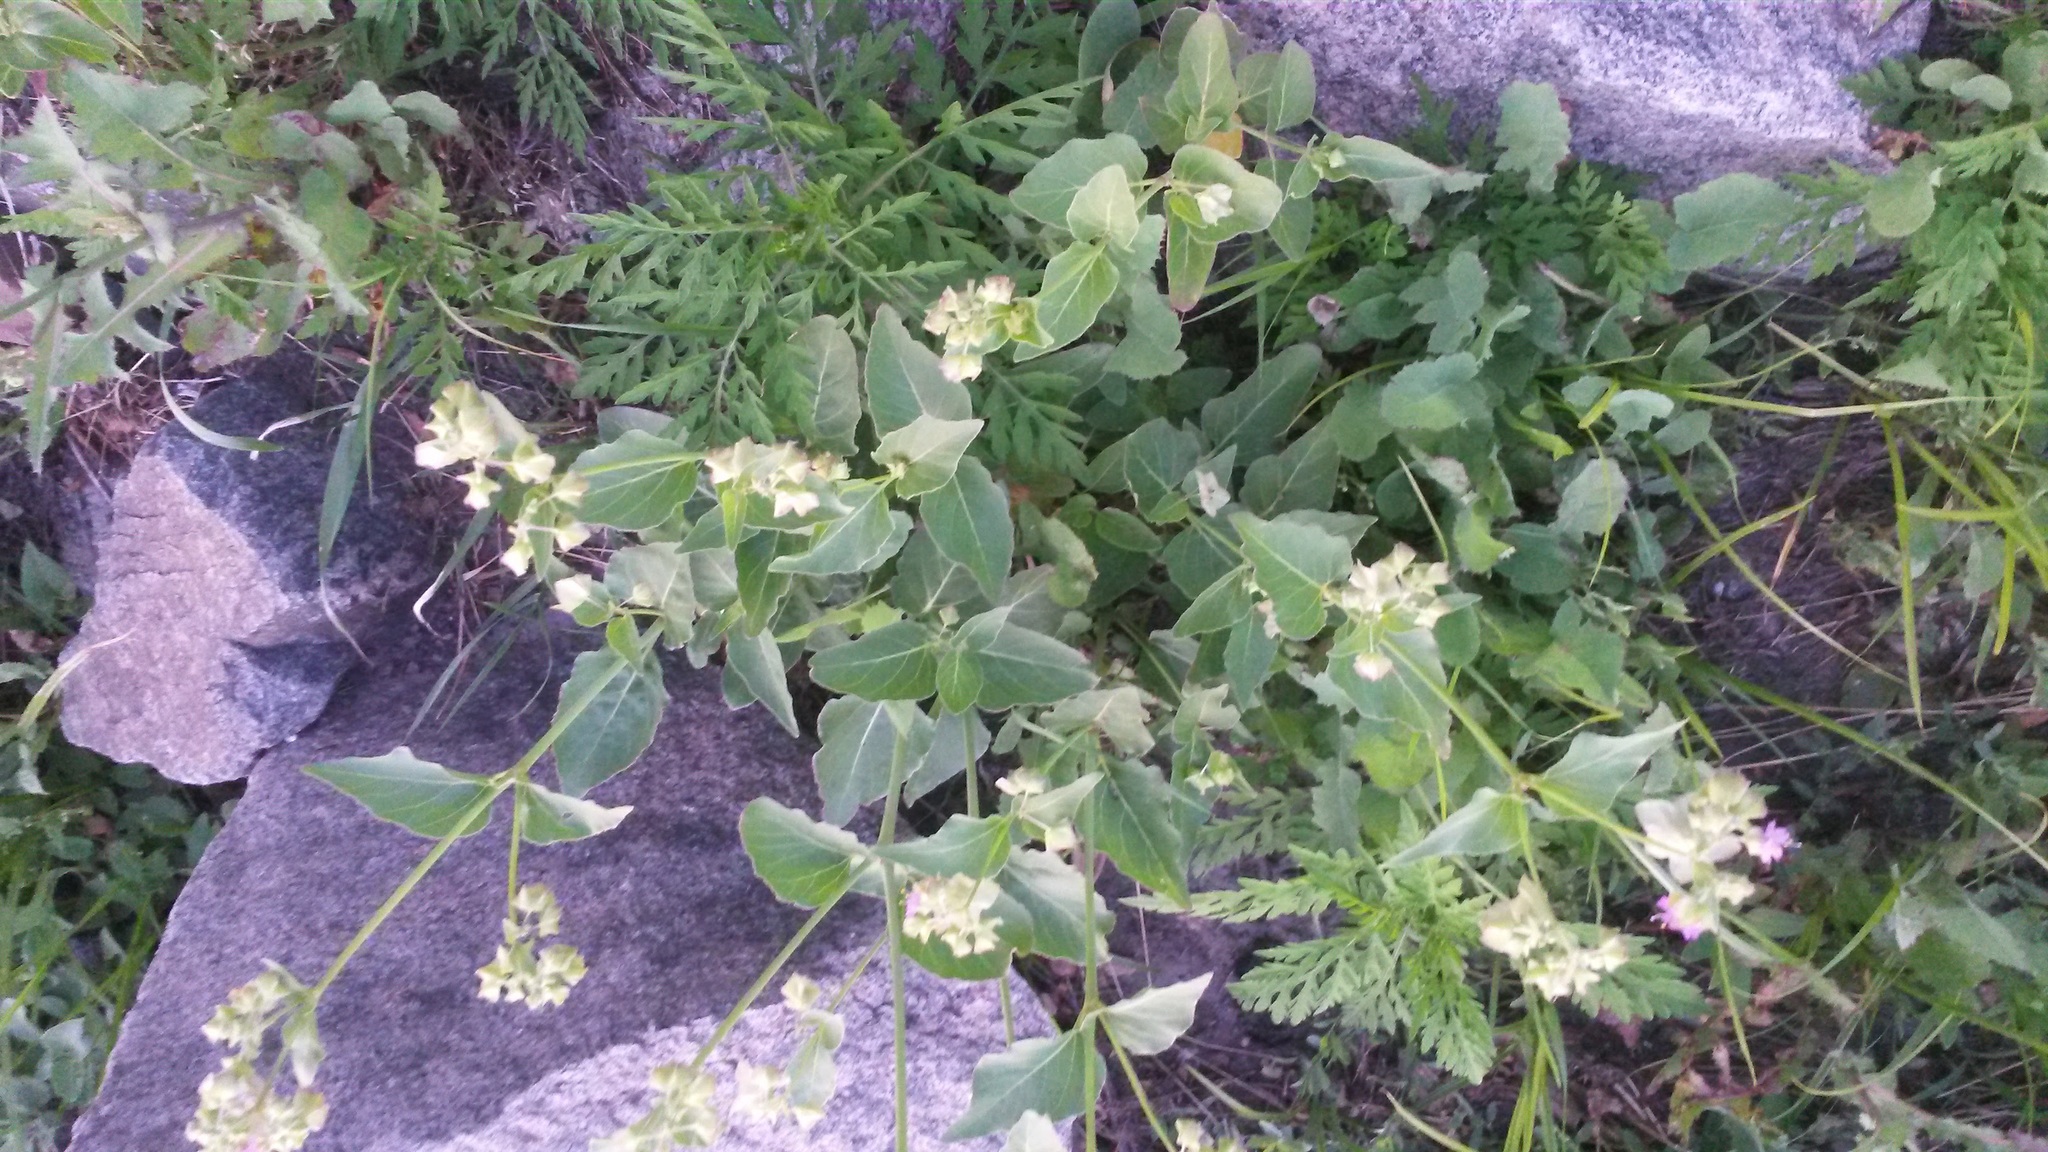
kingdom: Plantae
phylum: Tracheophyta
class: Magnoliopsida
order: Caryophyllales
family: Nyctaginaceae
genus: Mirabilis
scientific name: Mirabilis nyctaginea
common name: Umbrella wort
